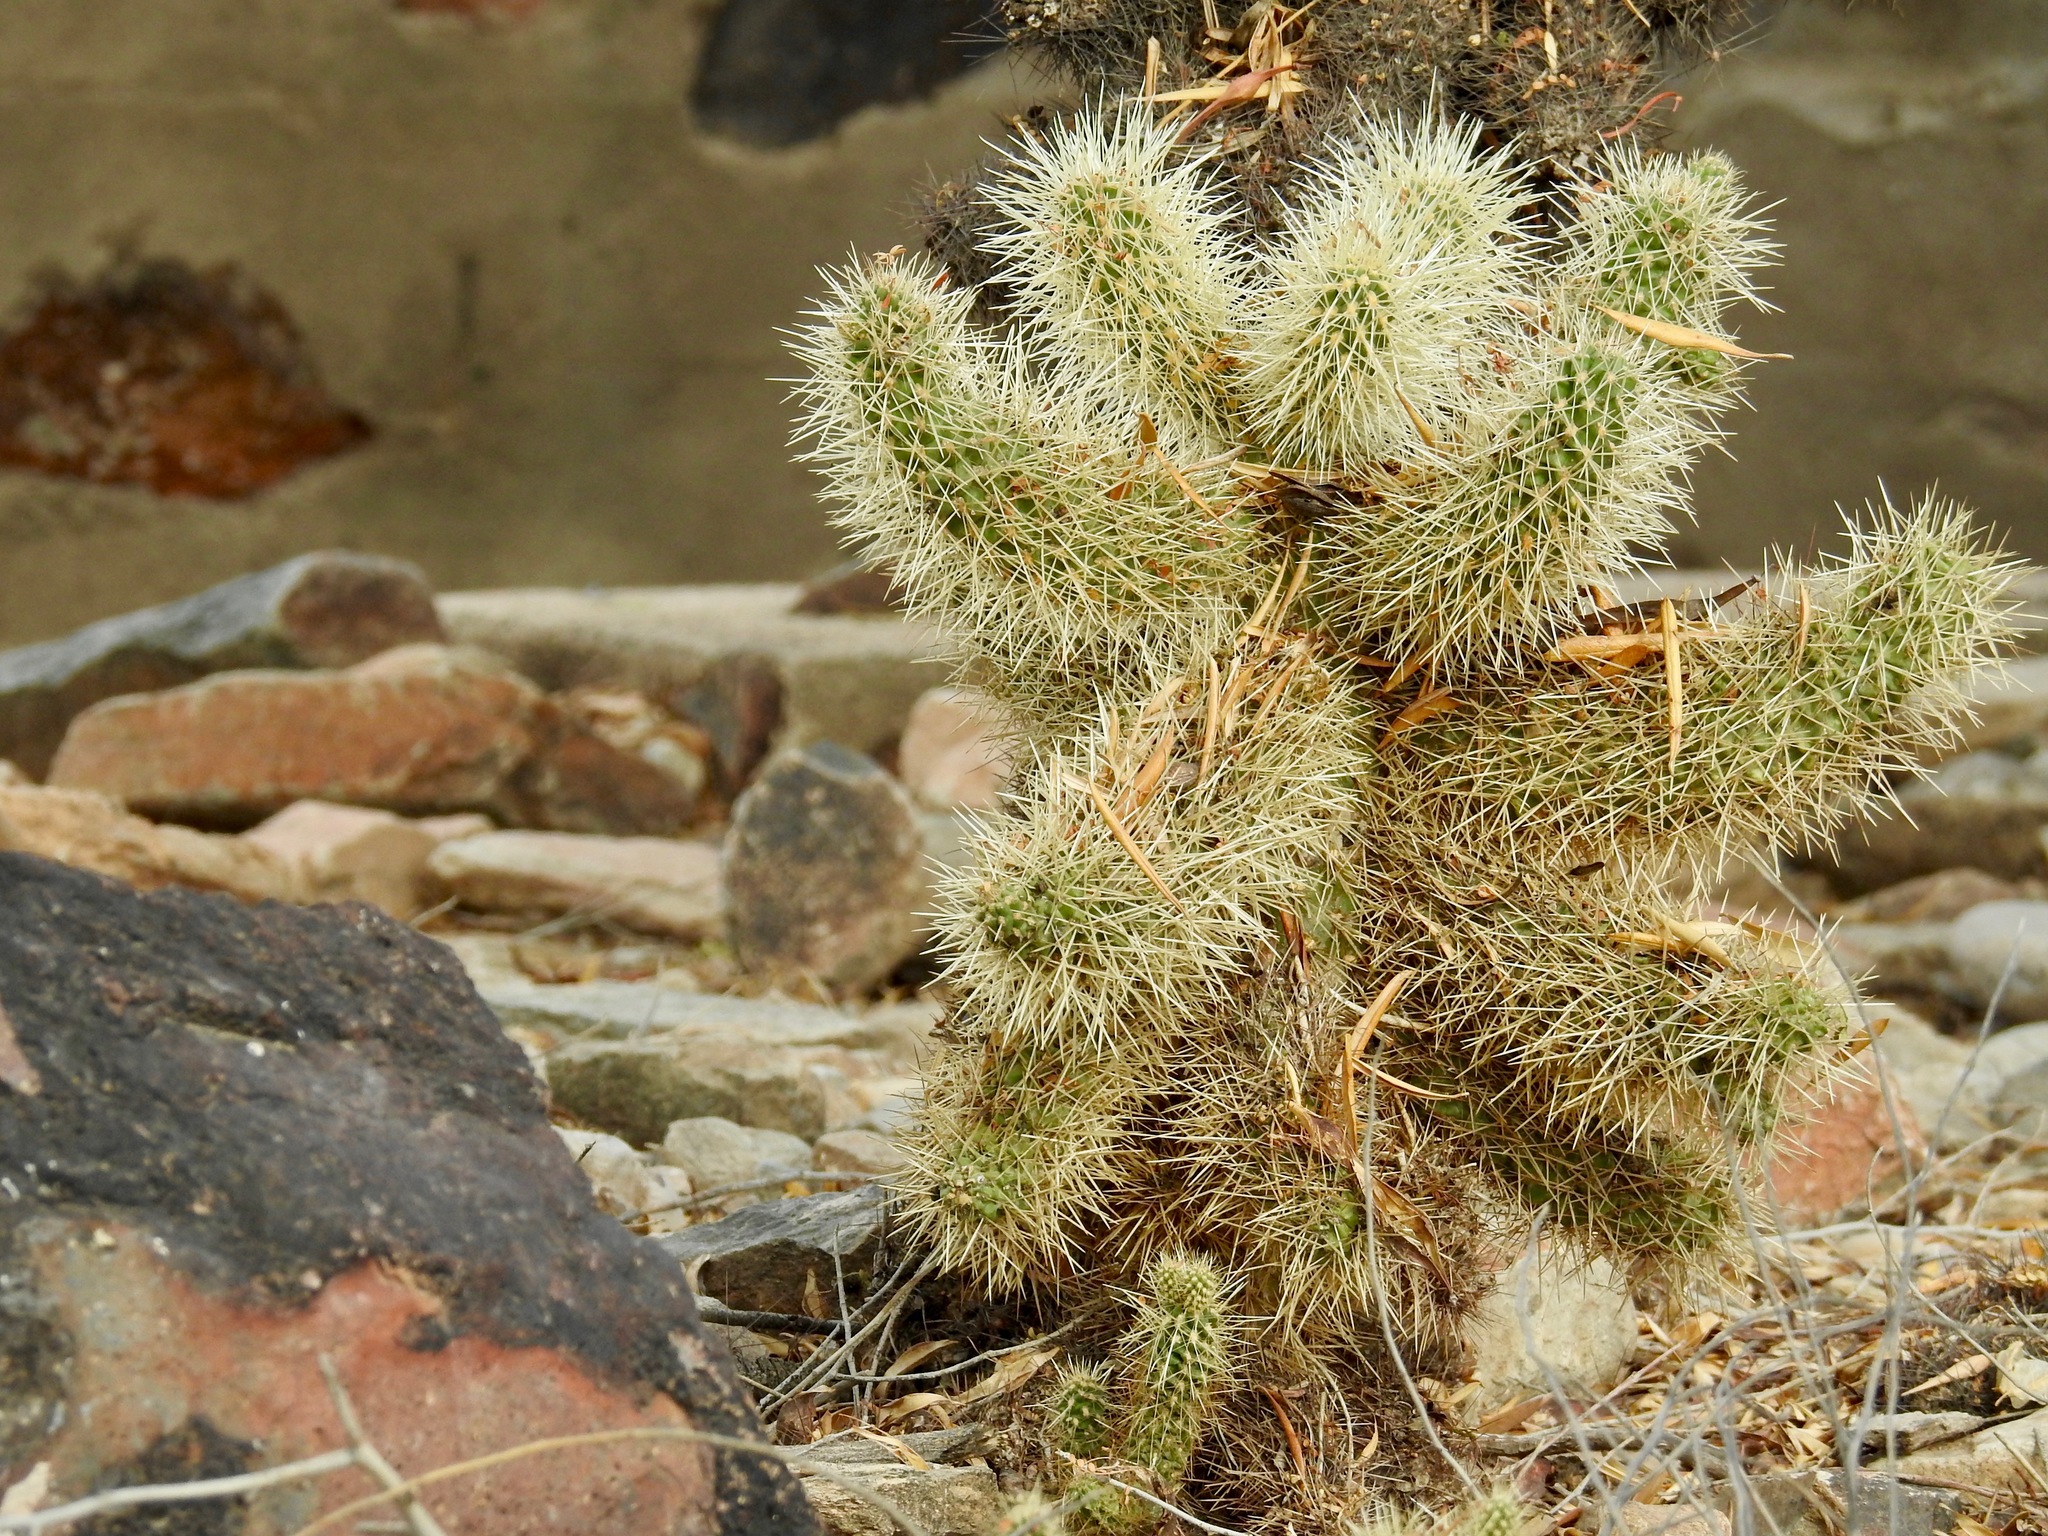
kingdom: Plantae
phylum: Tracheophyta
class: Magnoliopsida
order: Caryophyllales
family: Cactaceae
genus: Cylindropuntia
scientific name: Cylindropuntia fosbergii
